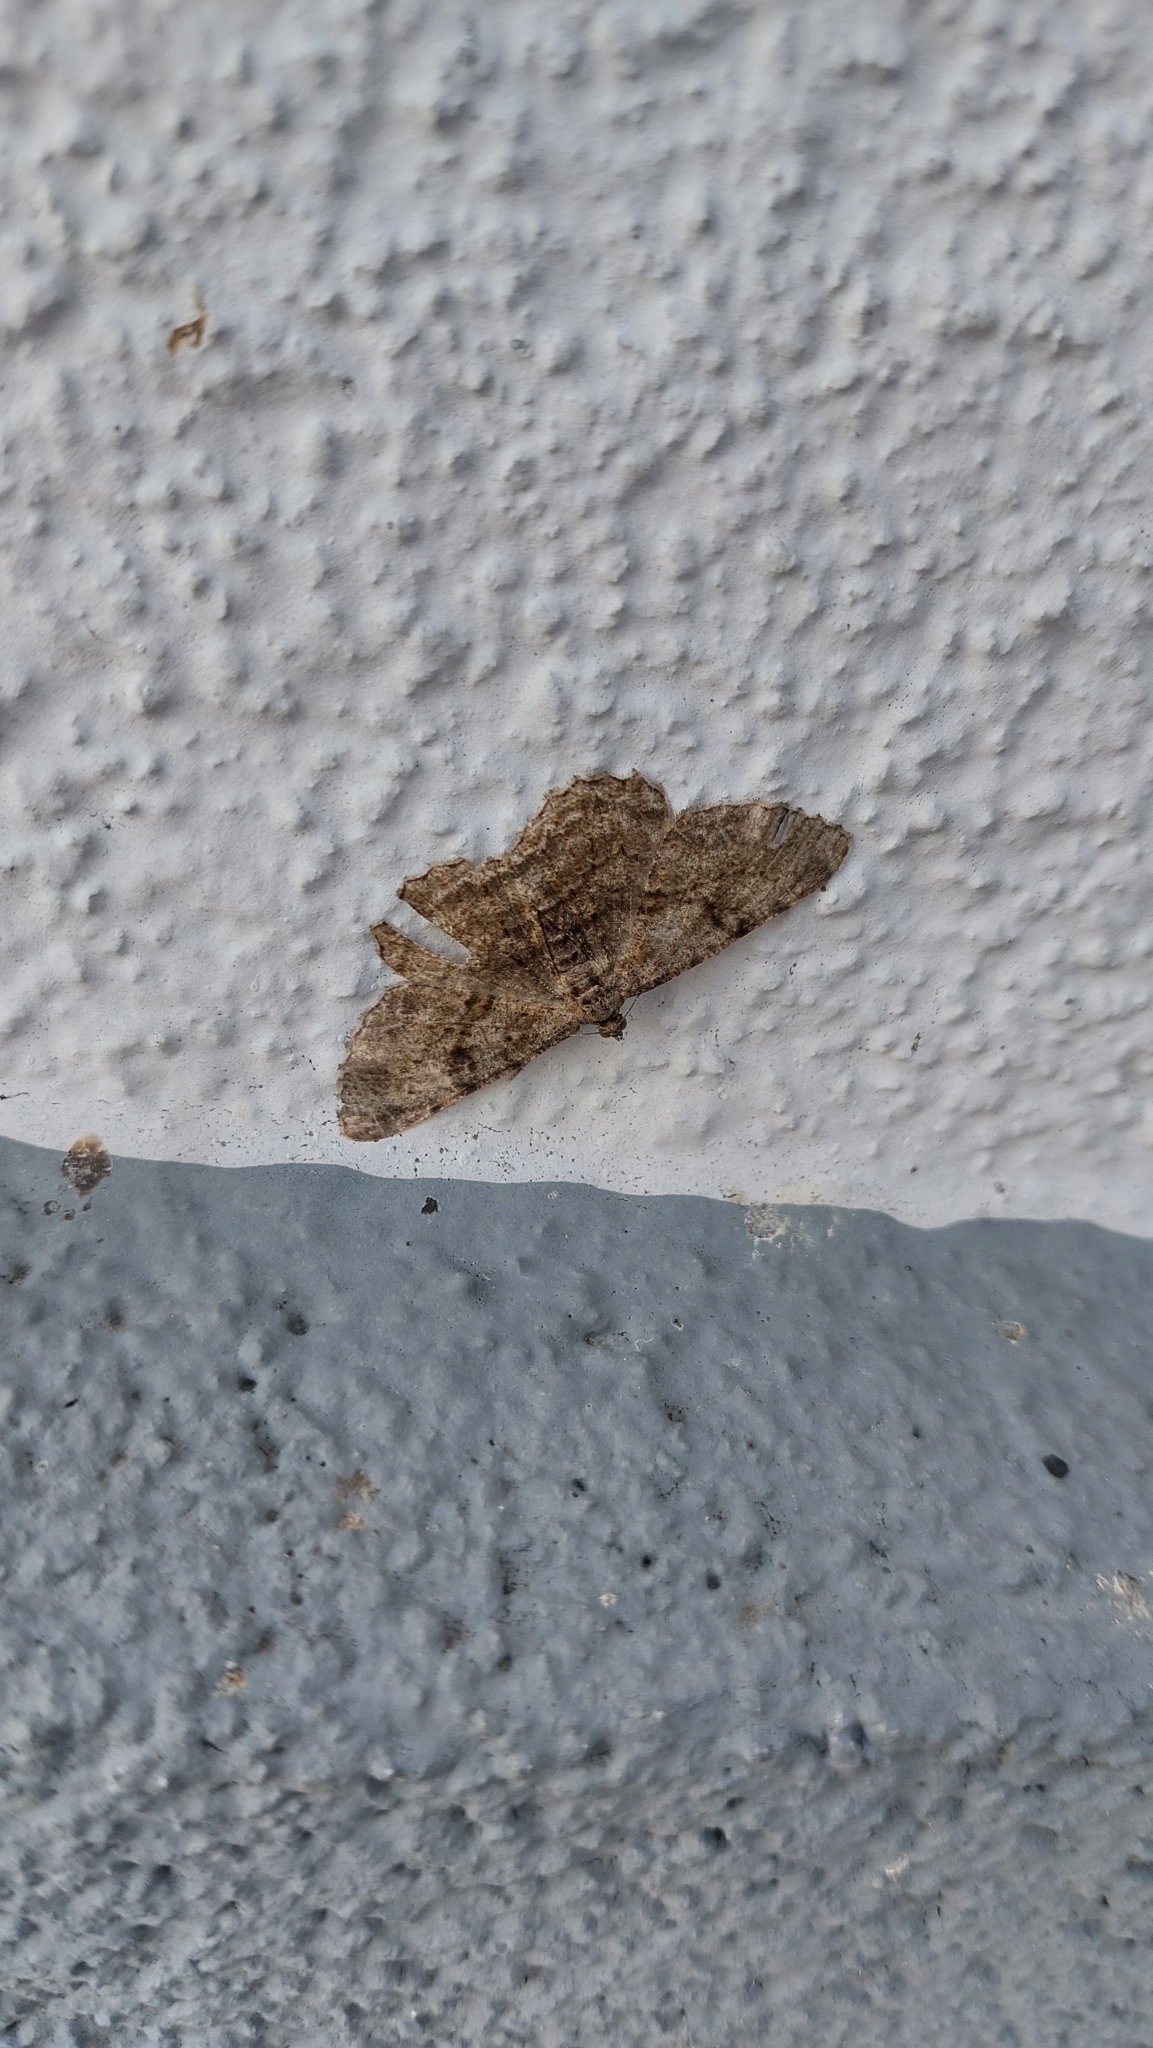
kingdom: Animalia
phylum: Arthropoda
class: Insecta
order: Lepidoptera
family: Geometridae
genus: Peribatodes
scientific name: Peribatodes rhomboidaria
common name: Willow beauty
